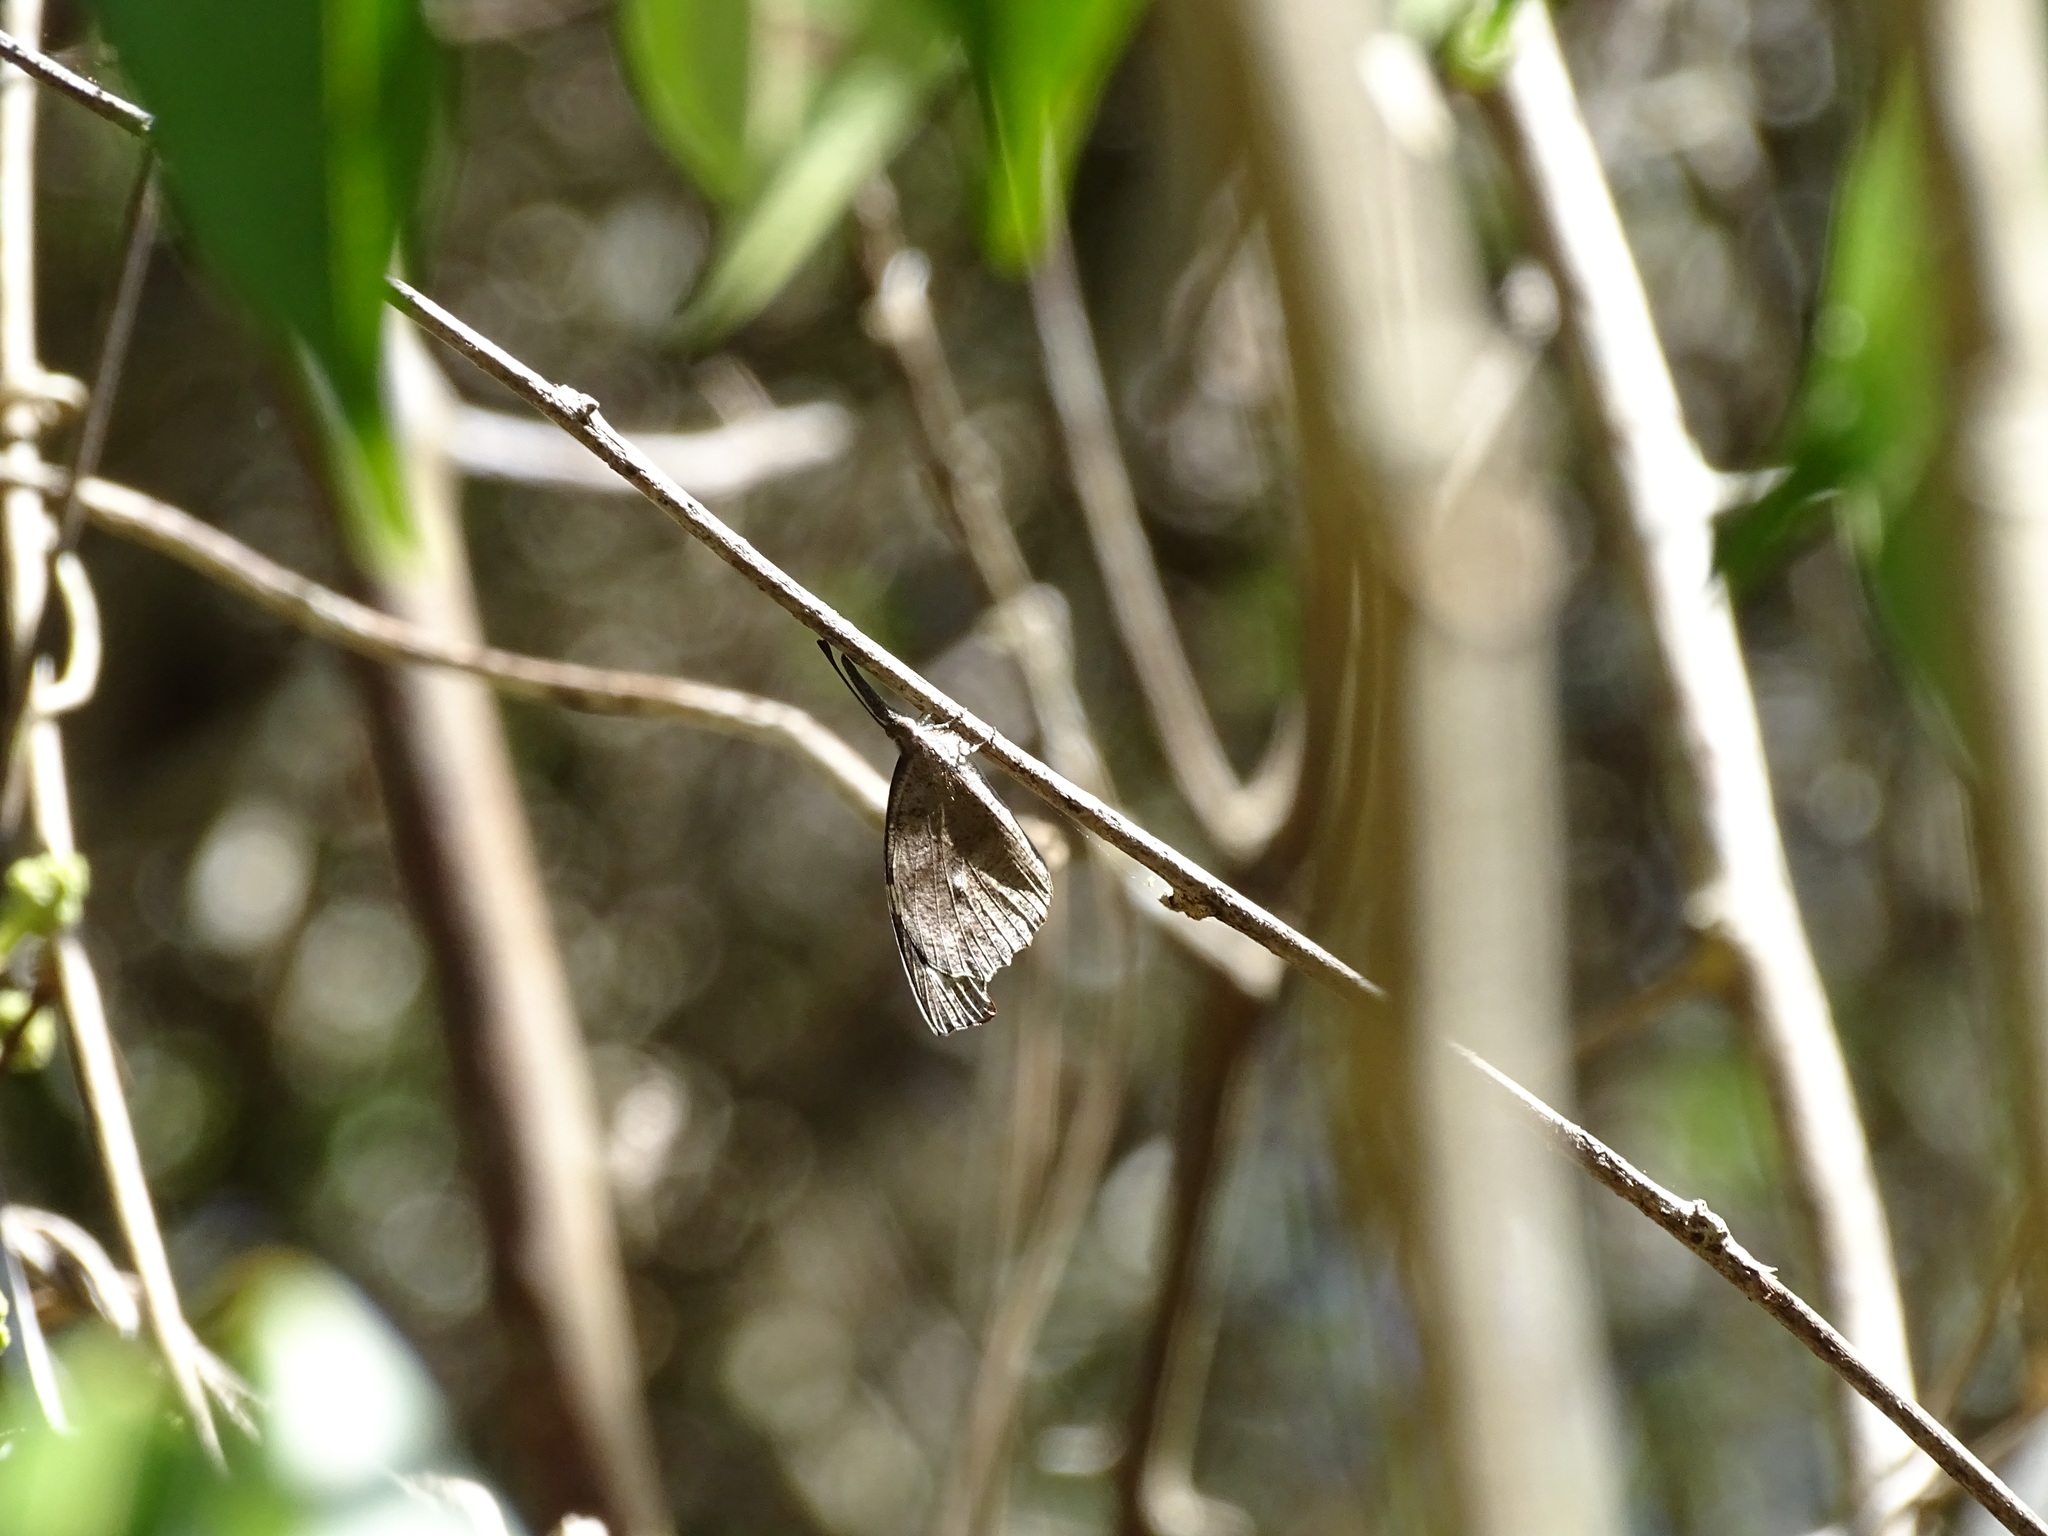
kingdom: Animalia
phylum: Arthropoda
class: Insecta
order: Lepidoptera
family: Nymphalidae
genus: Libytheana
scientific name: Libytheana motya
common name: Cuban snout
